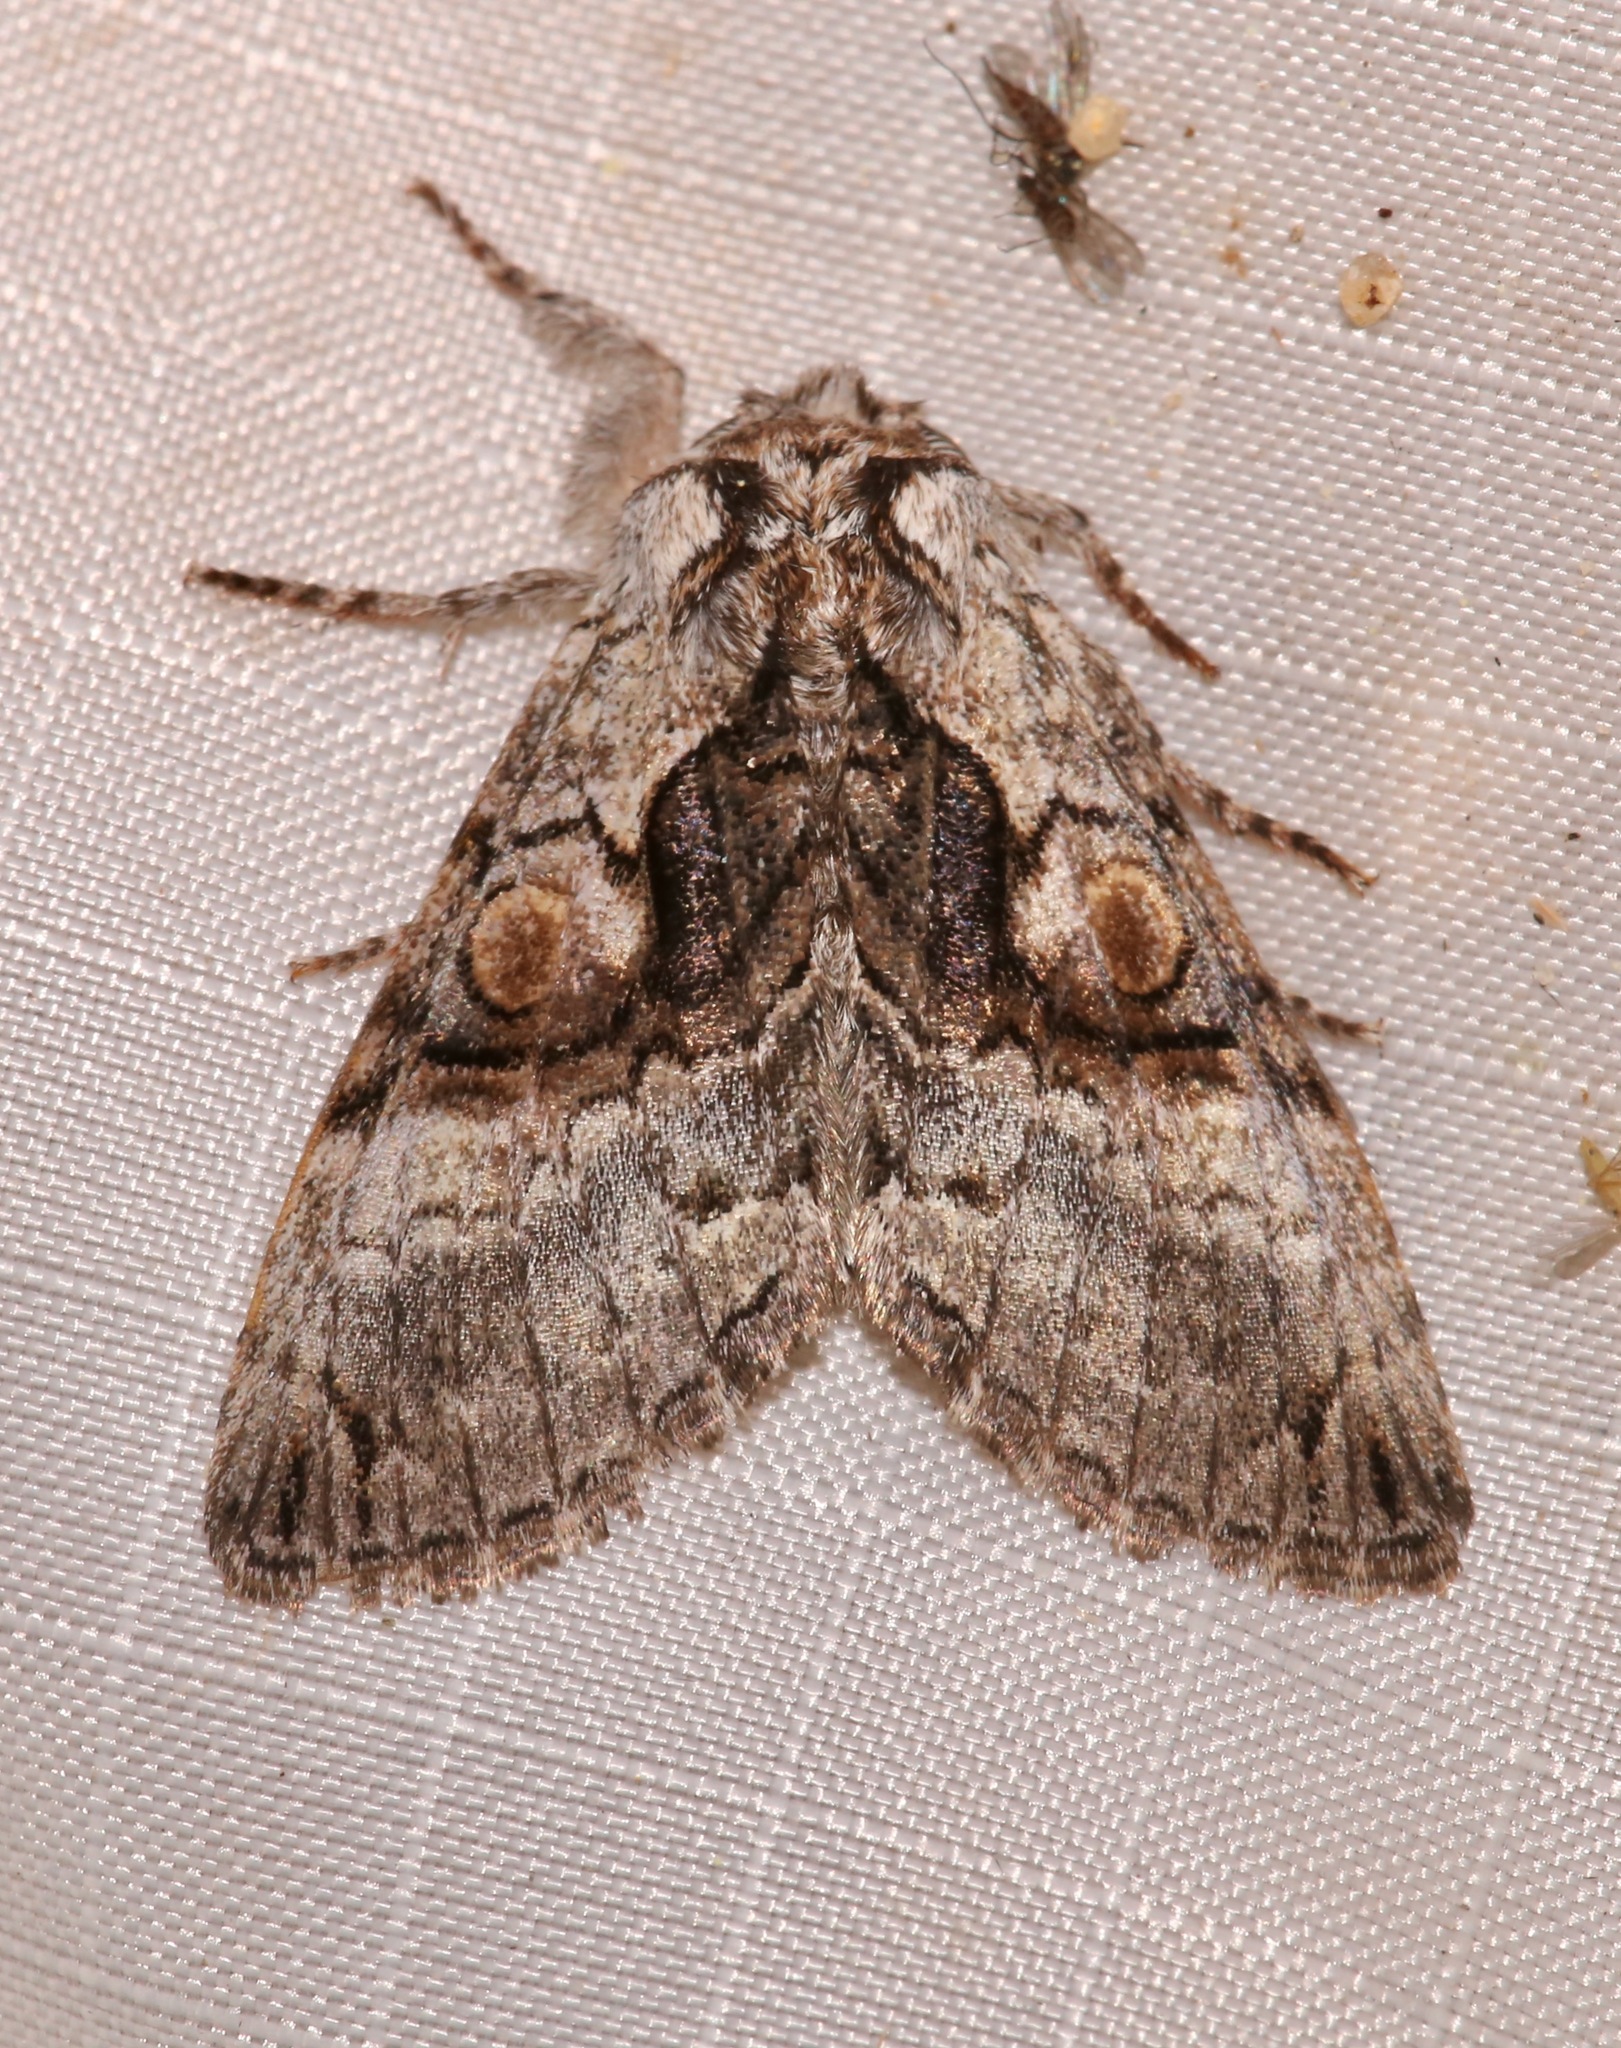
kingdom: Animalia
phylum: Arthropoda
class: Insecta
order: Lepidoptera
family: Noctuidae
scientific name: Noctuidae
